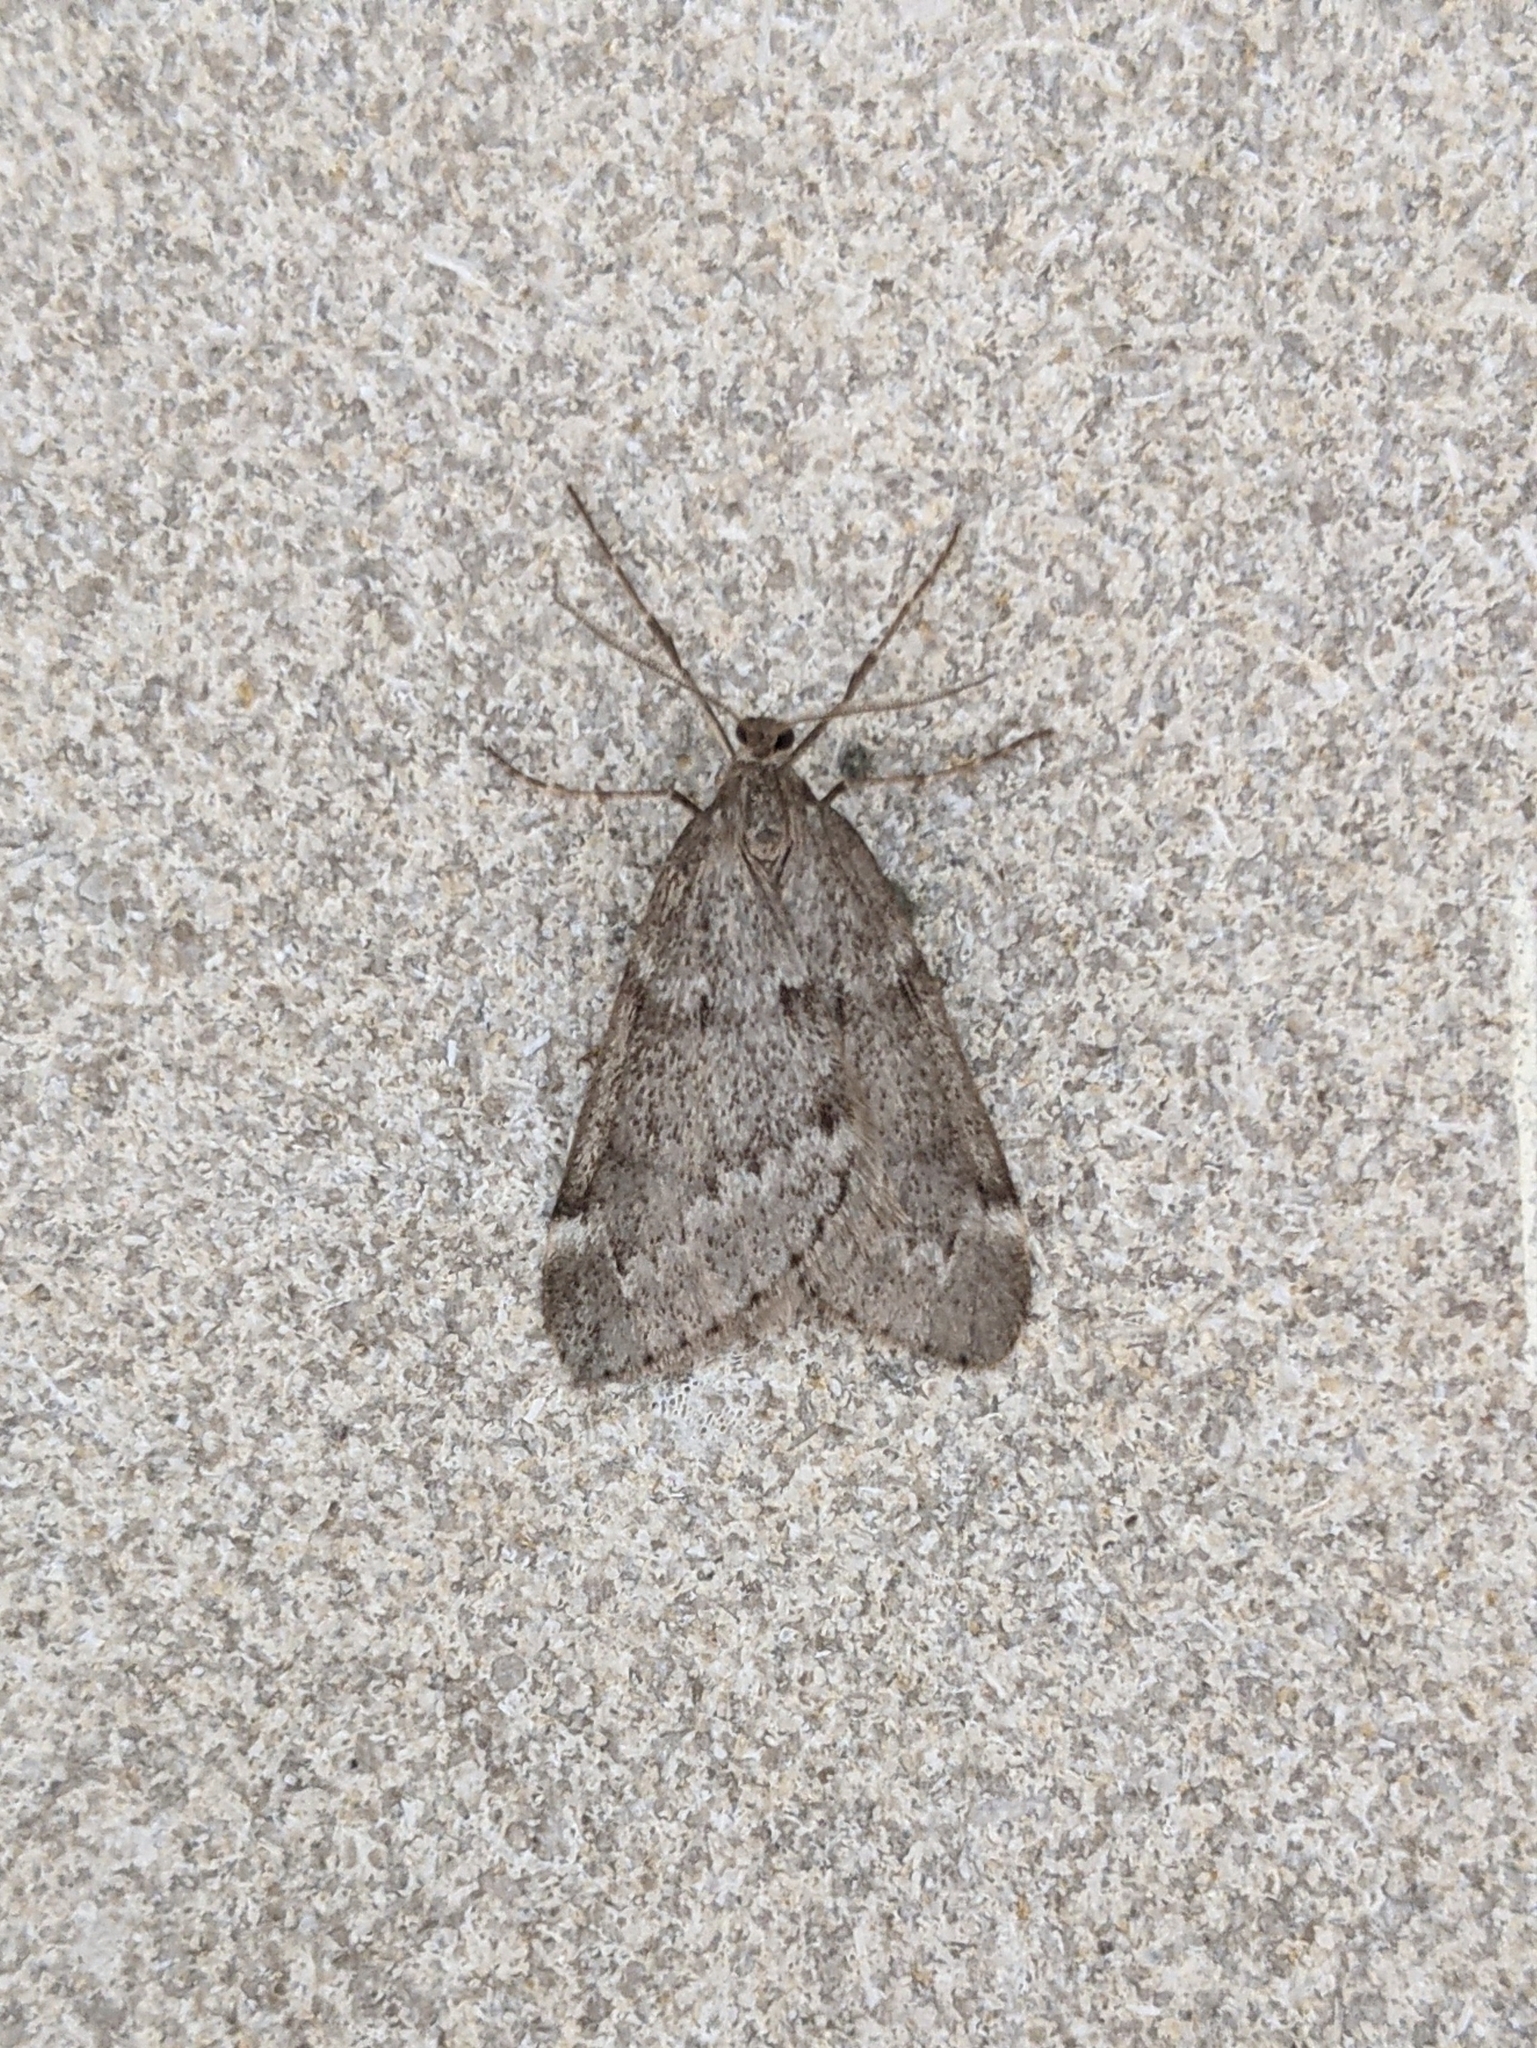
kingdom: Animalia
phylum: Arthropoda
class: Insecta
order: Lepidoptera
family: Geometridae
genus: Alsophila
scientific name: Alsophila pometaria
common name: Fall cankerworm
